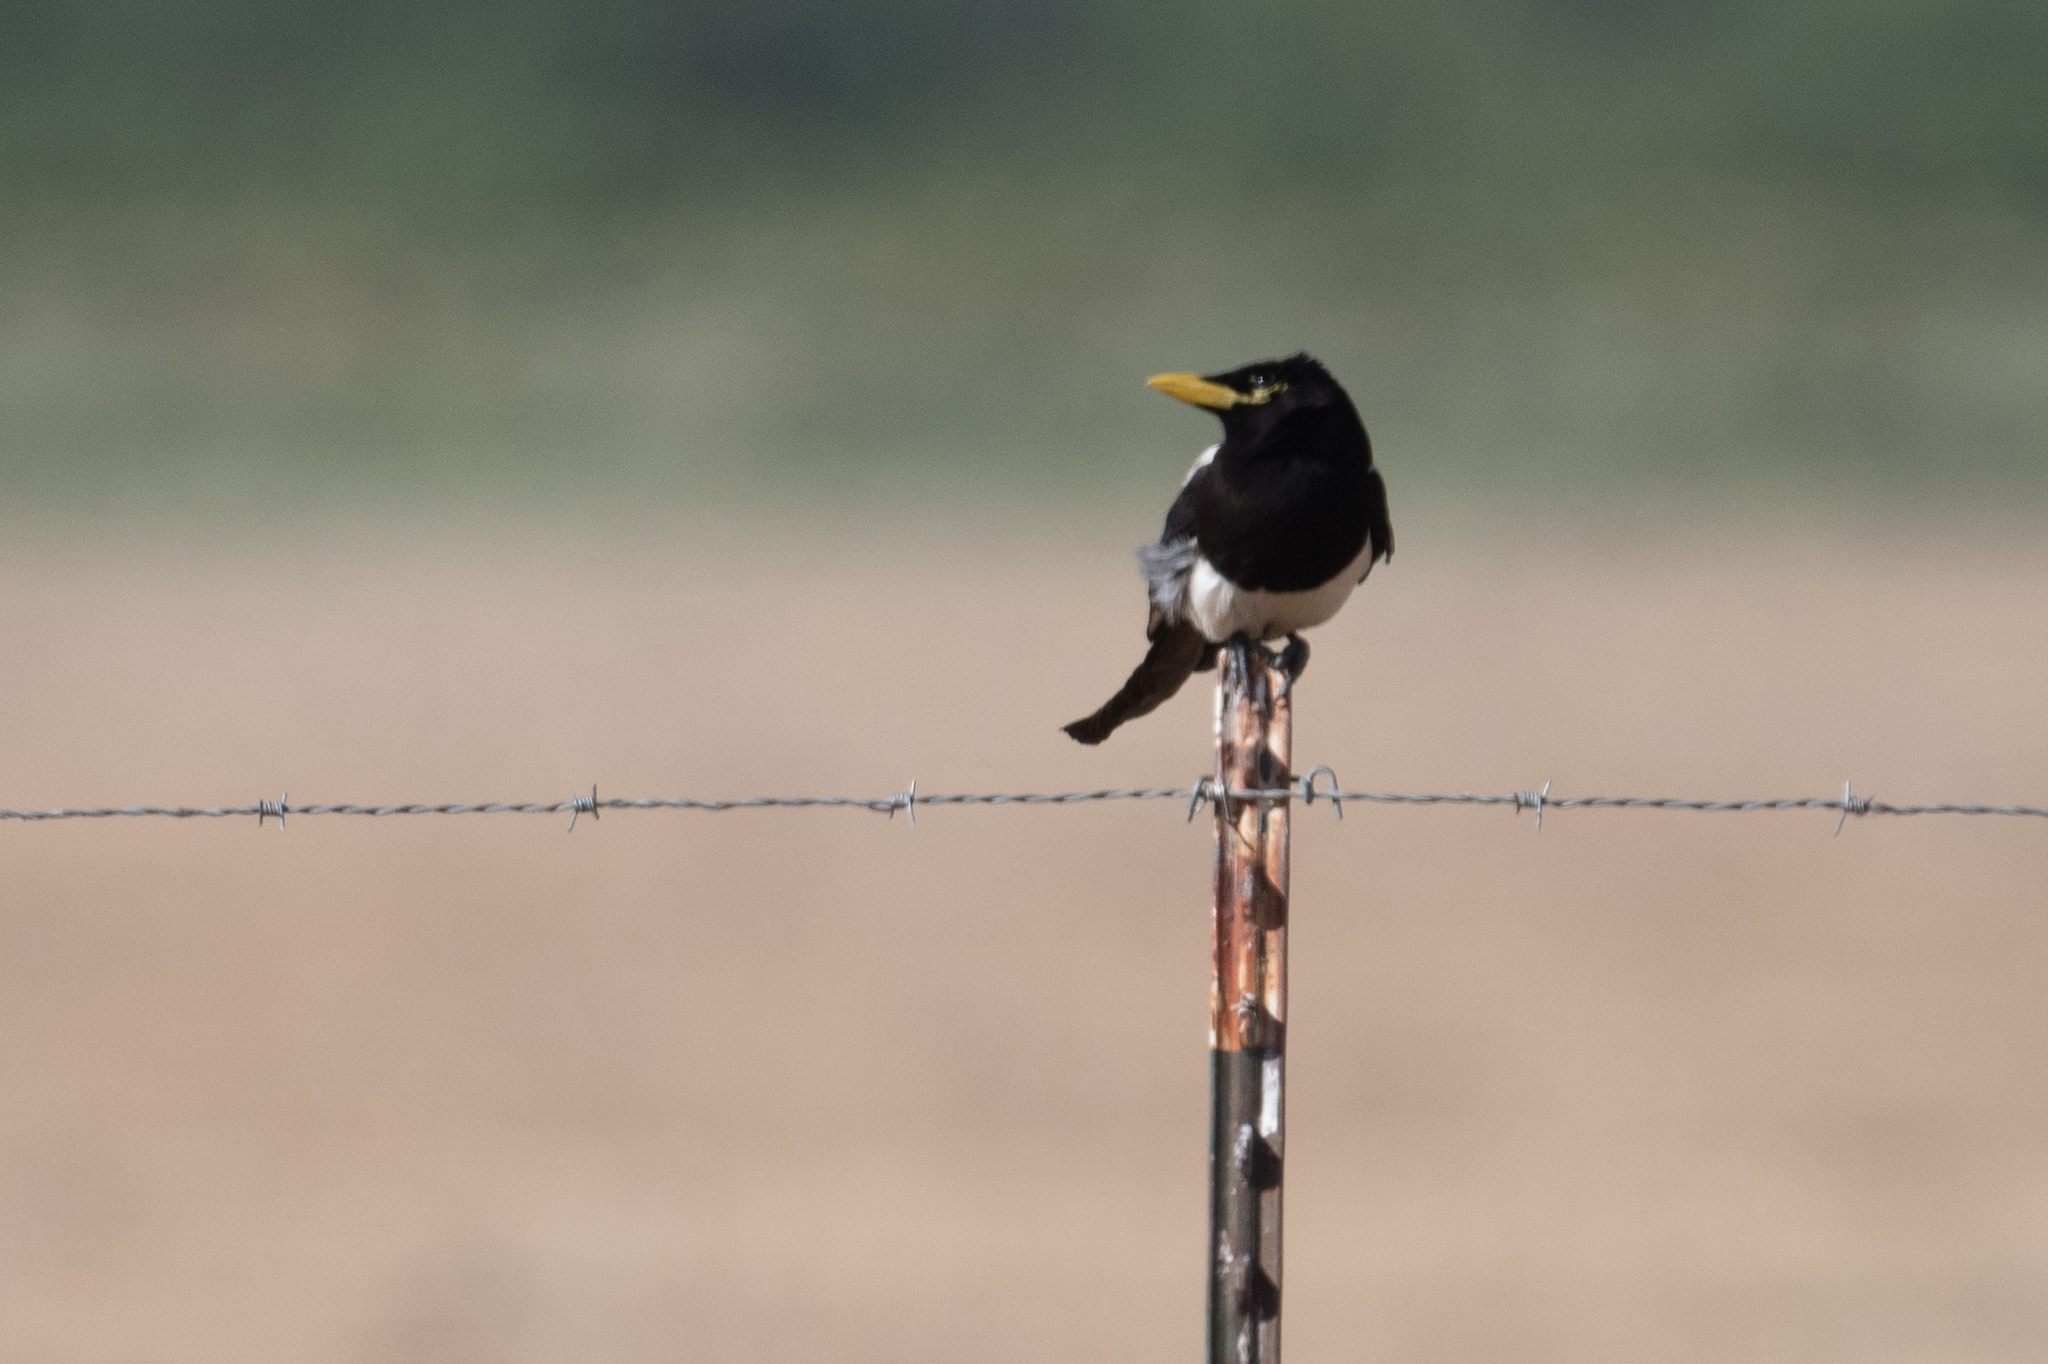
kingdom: Animalia
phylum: Chordata
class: Aves
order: Passeriformes
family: Corvidae
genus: Pica
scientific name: Pica nuttalli
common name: Yellow-billed magpie
